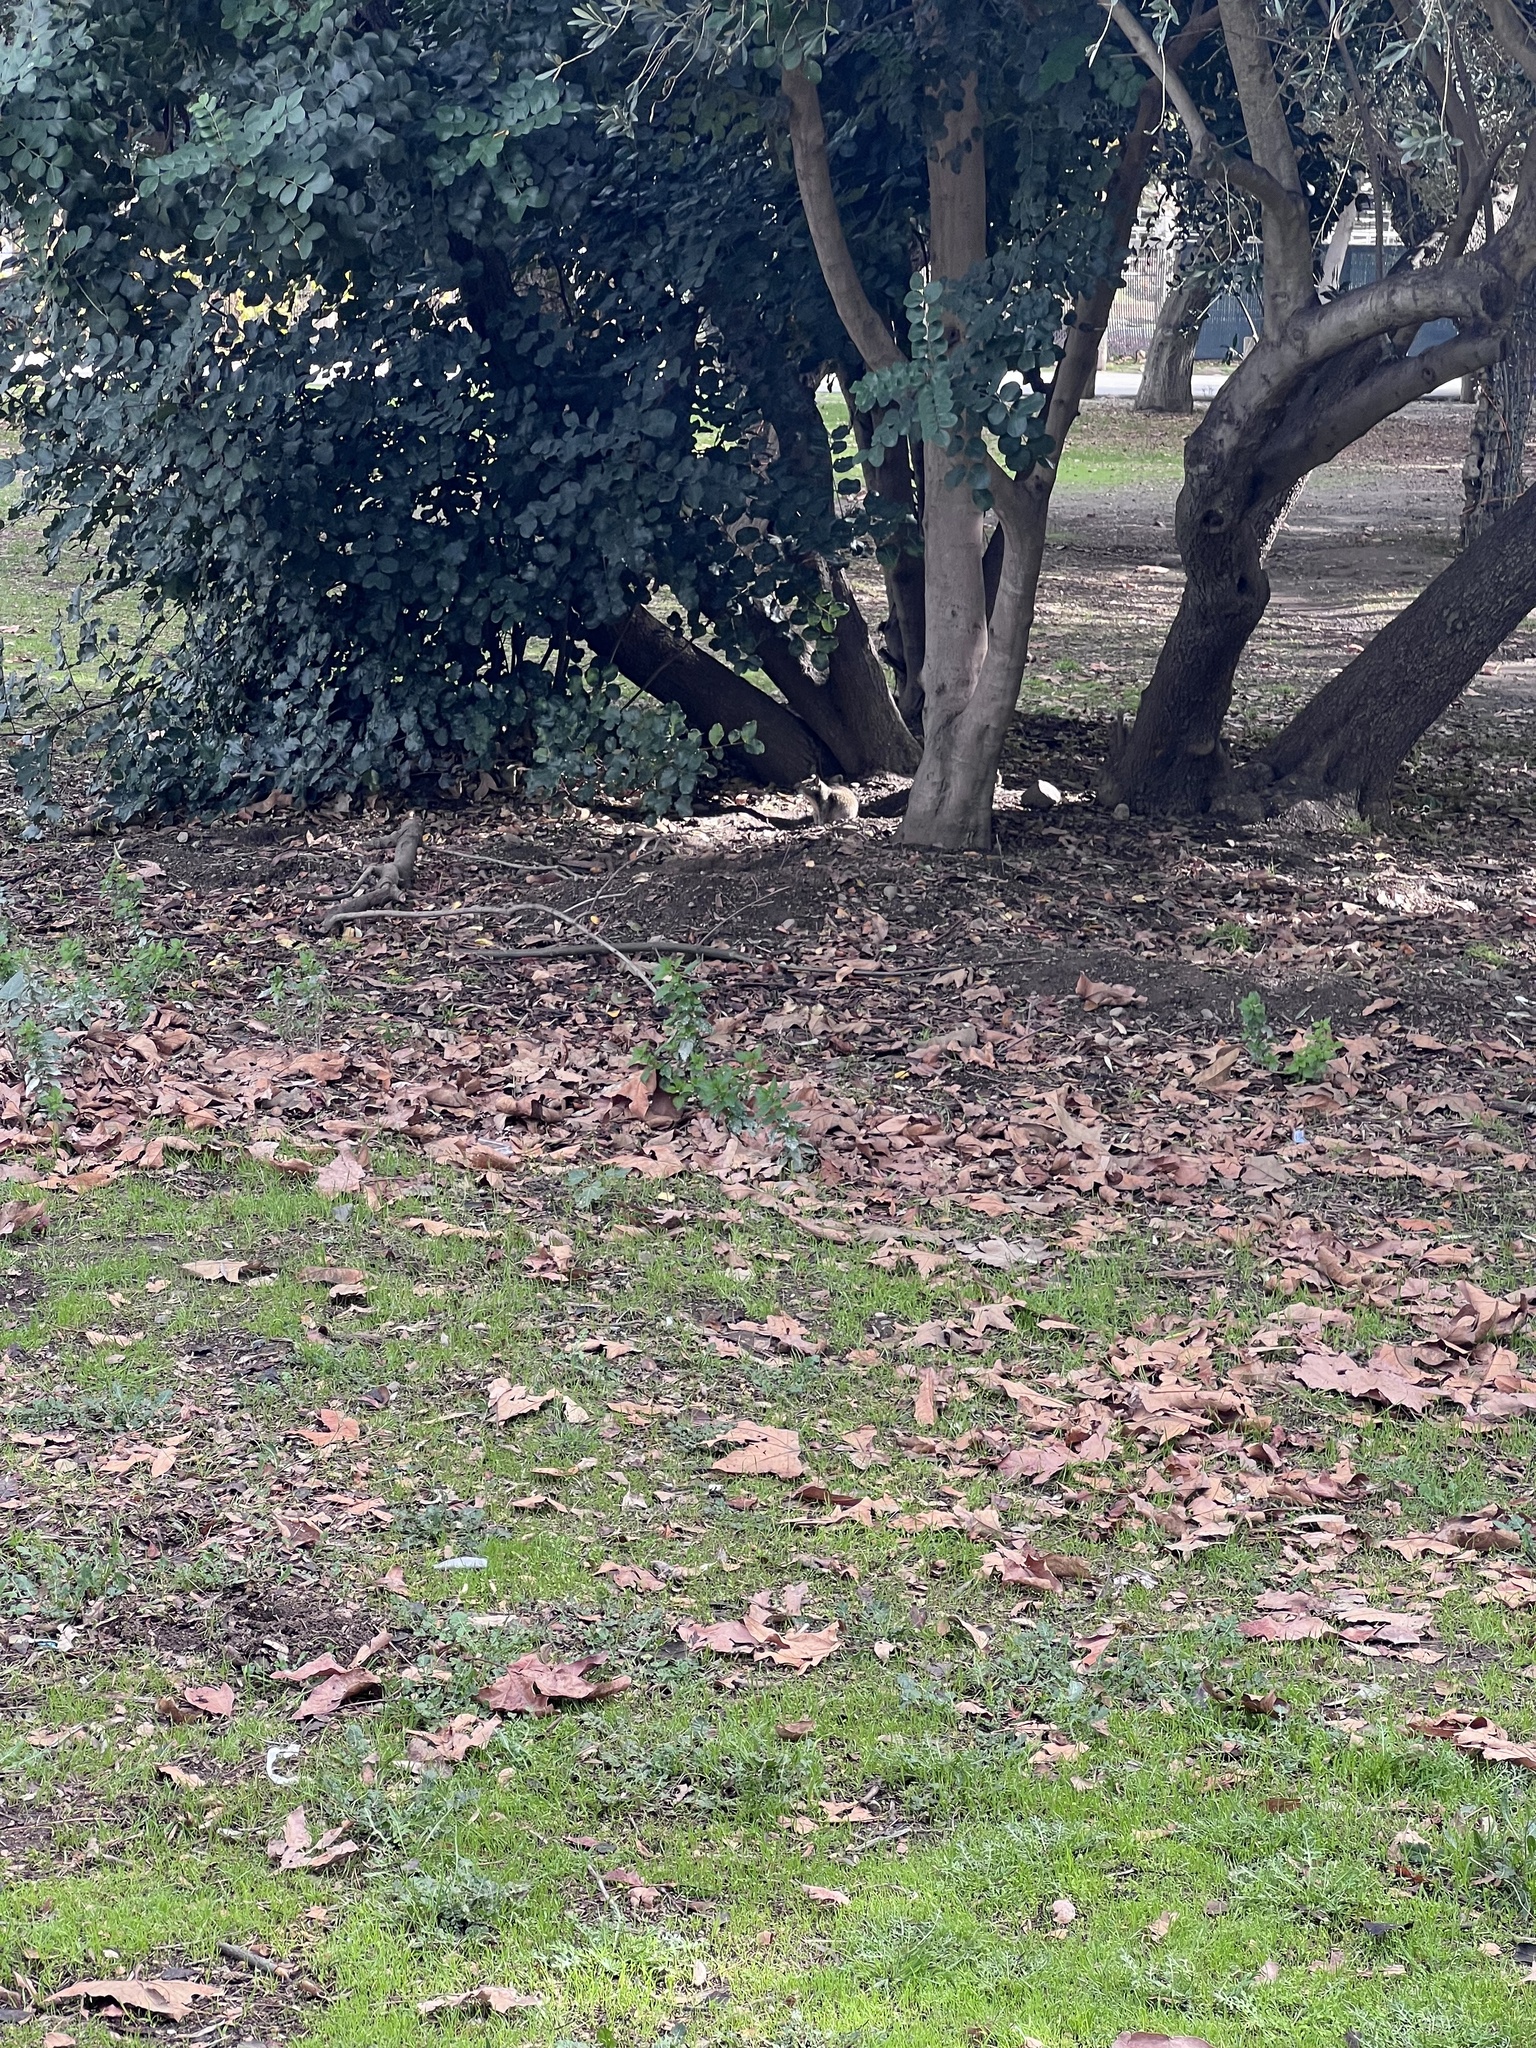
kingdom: Animalia
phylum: Chordata
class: Mammalia
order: Rodentia
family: Sciuridae
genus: Otospermophilus
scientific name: Otospermophilus beecheyi
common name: California ground squirrel
